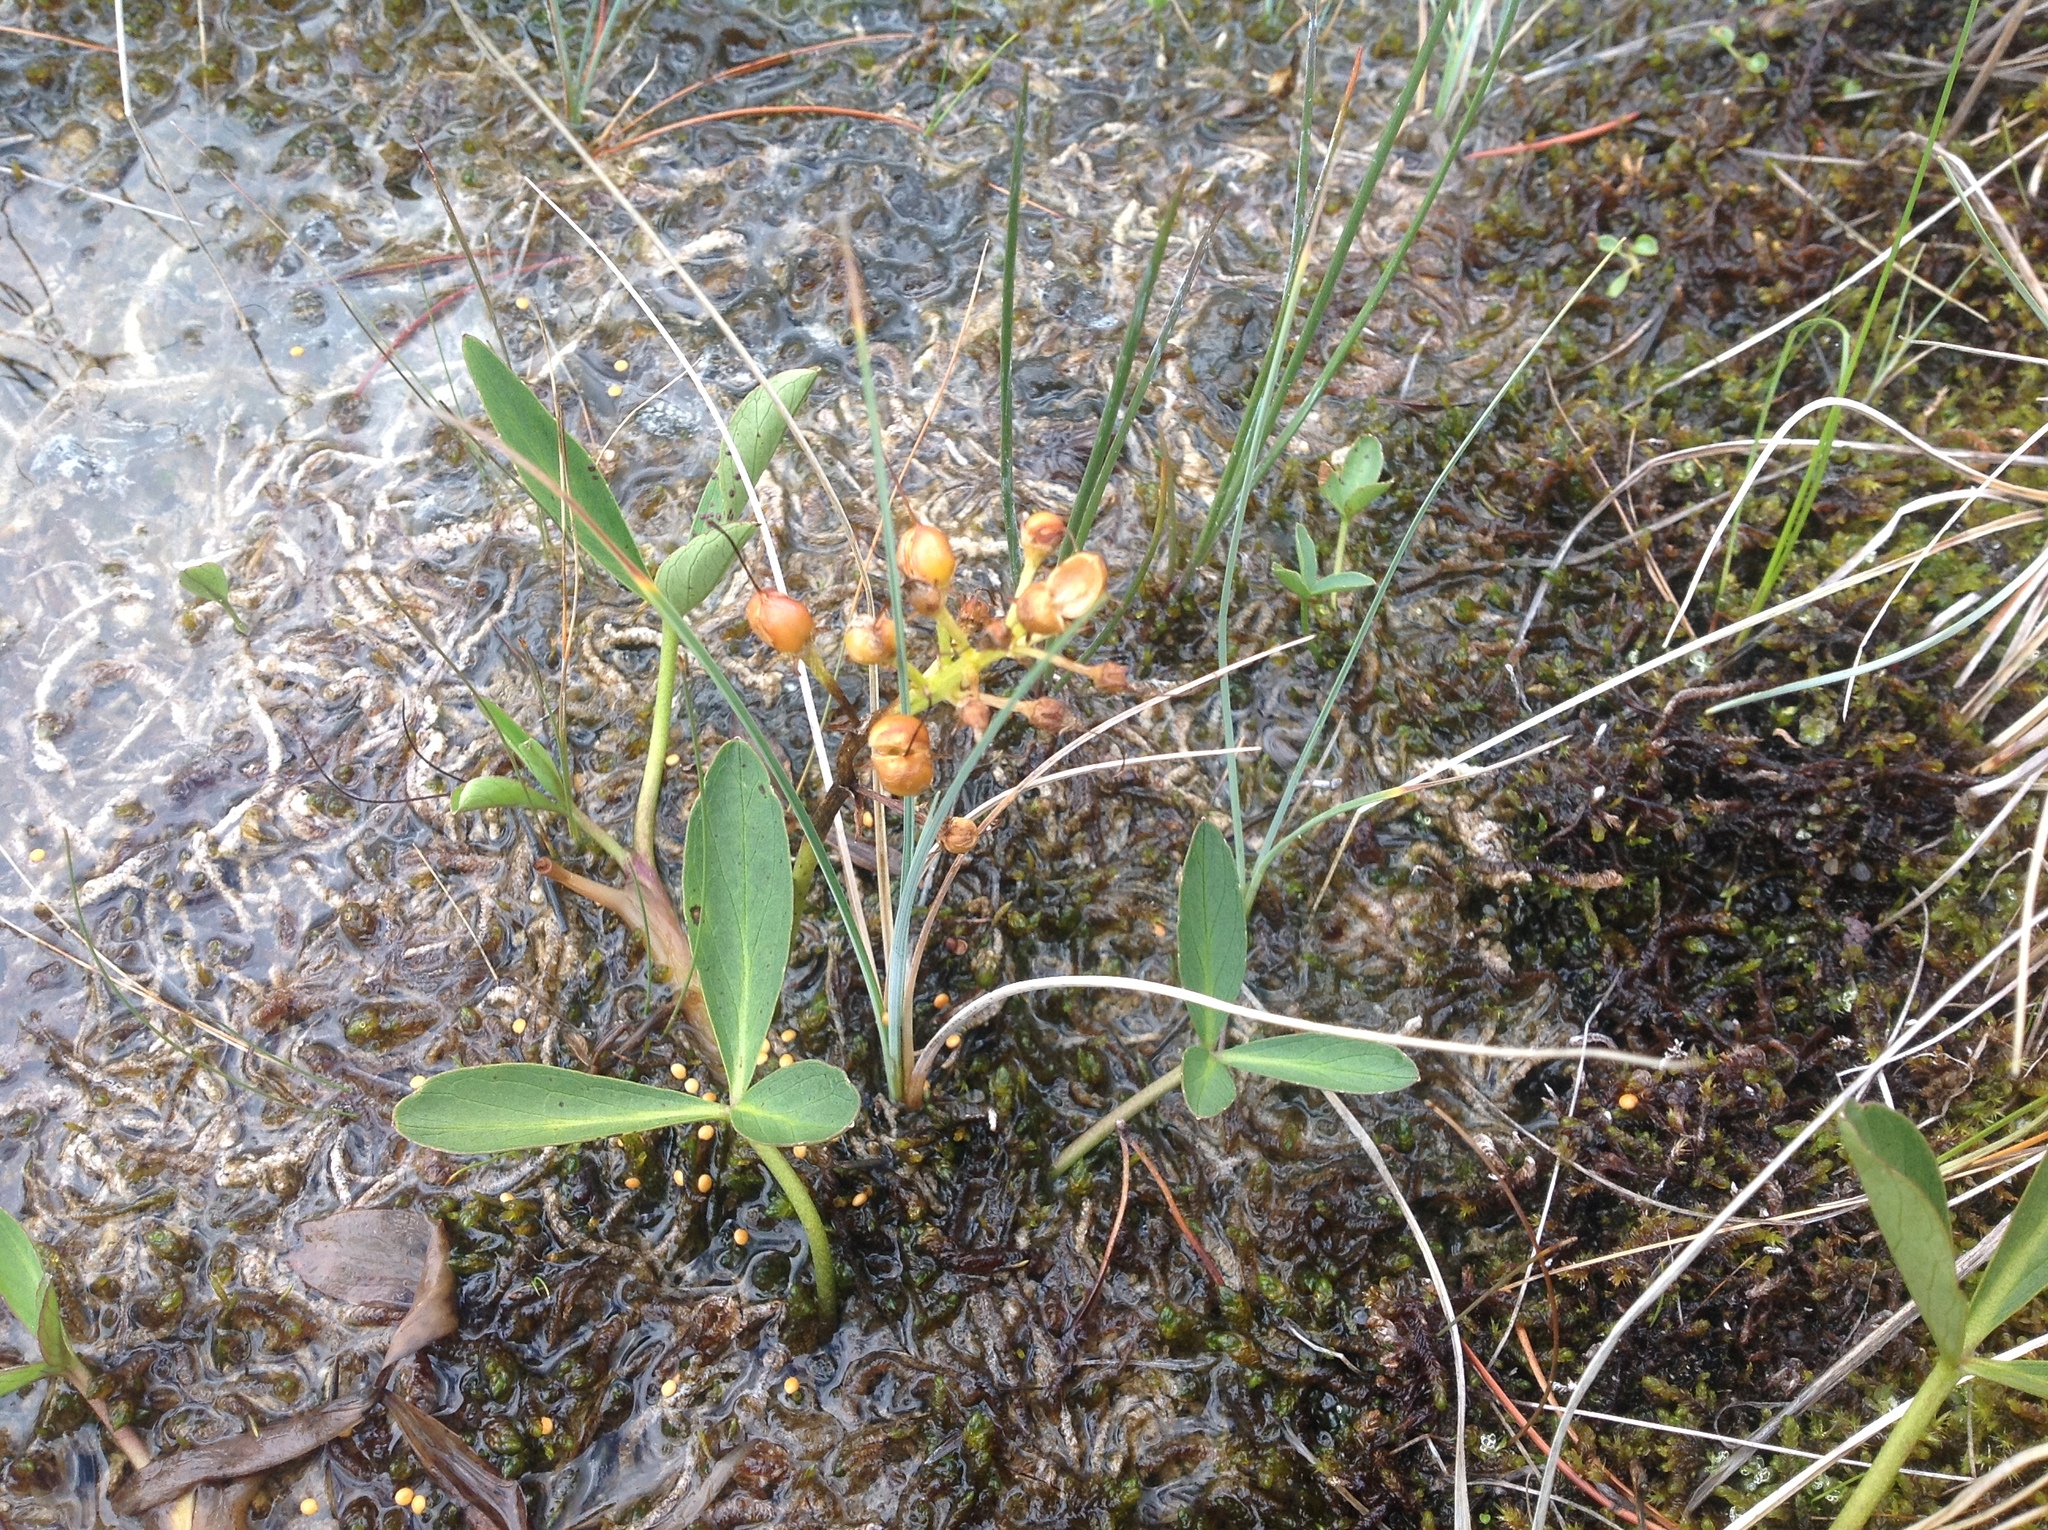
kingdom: Plantae
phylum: Tracheophyta
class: Magnoliopsida
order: Asterales
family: Menyanthaceae
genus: Menyanthes
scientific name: Menyanthes trifoliata
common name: Bogbean
